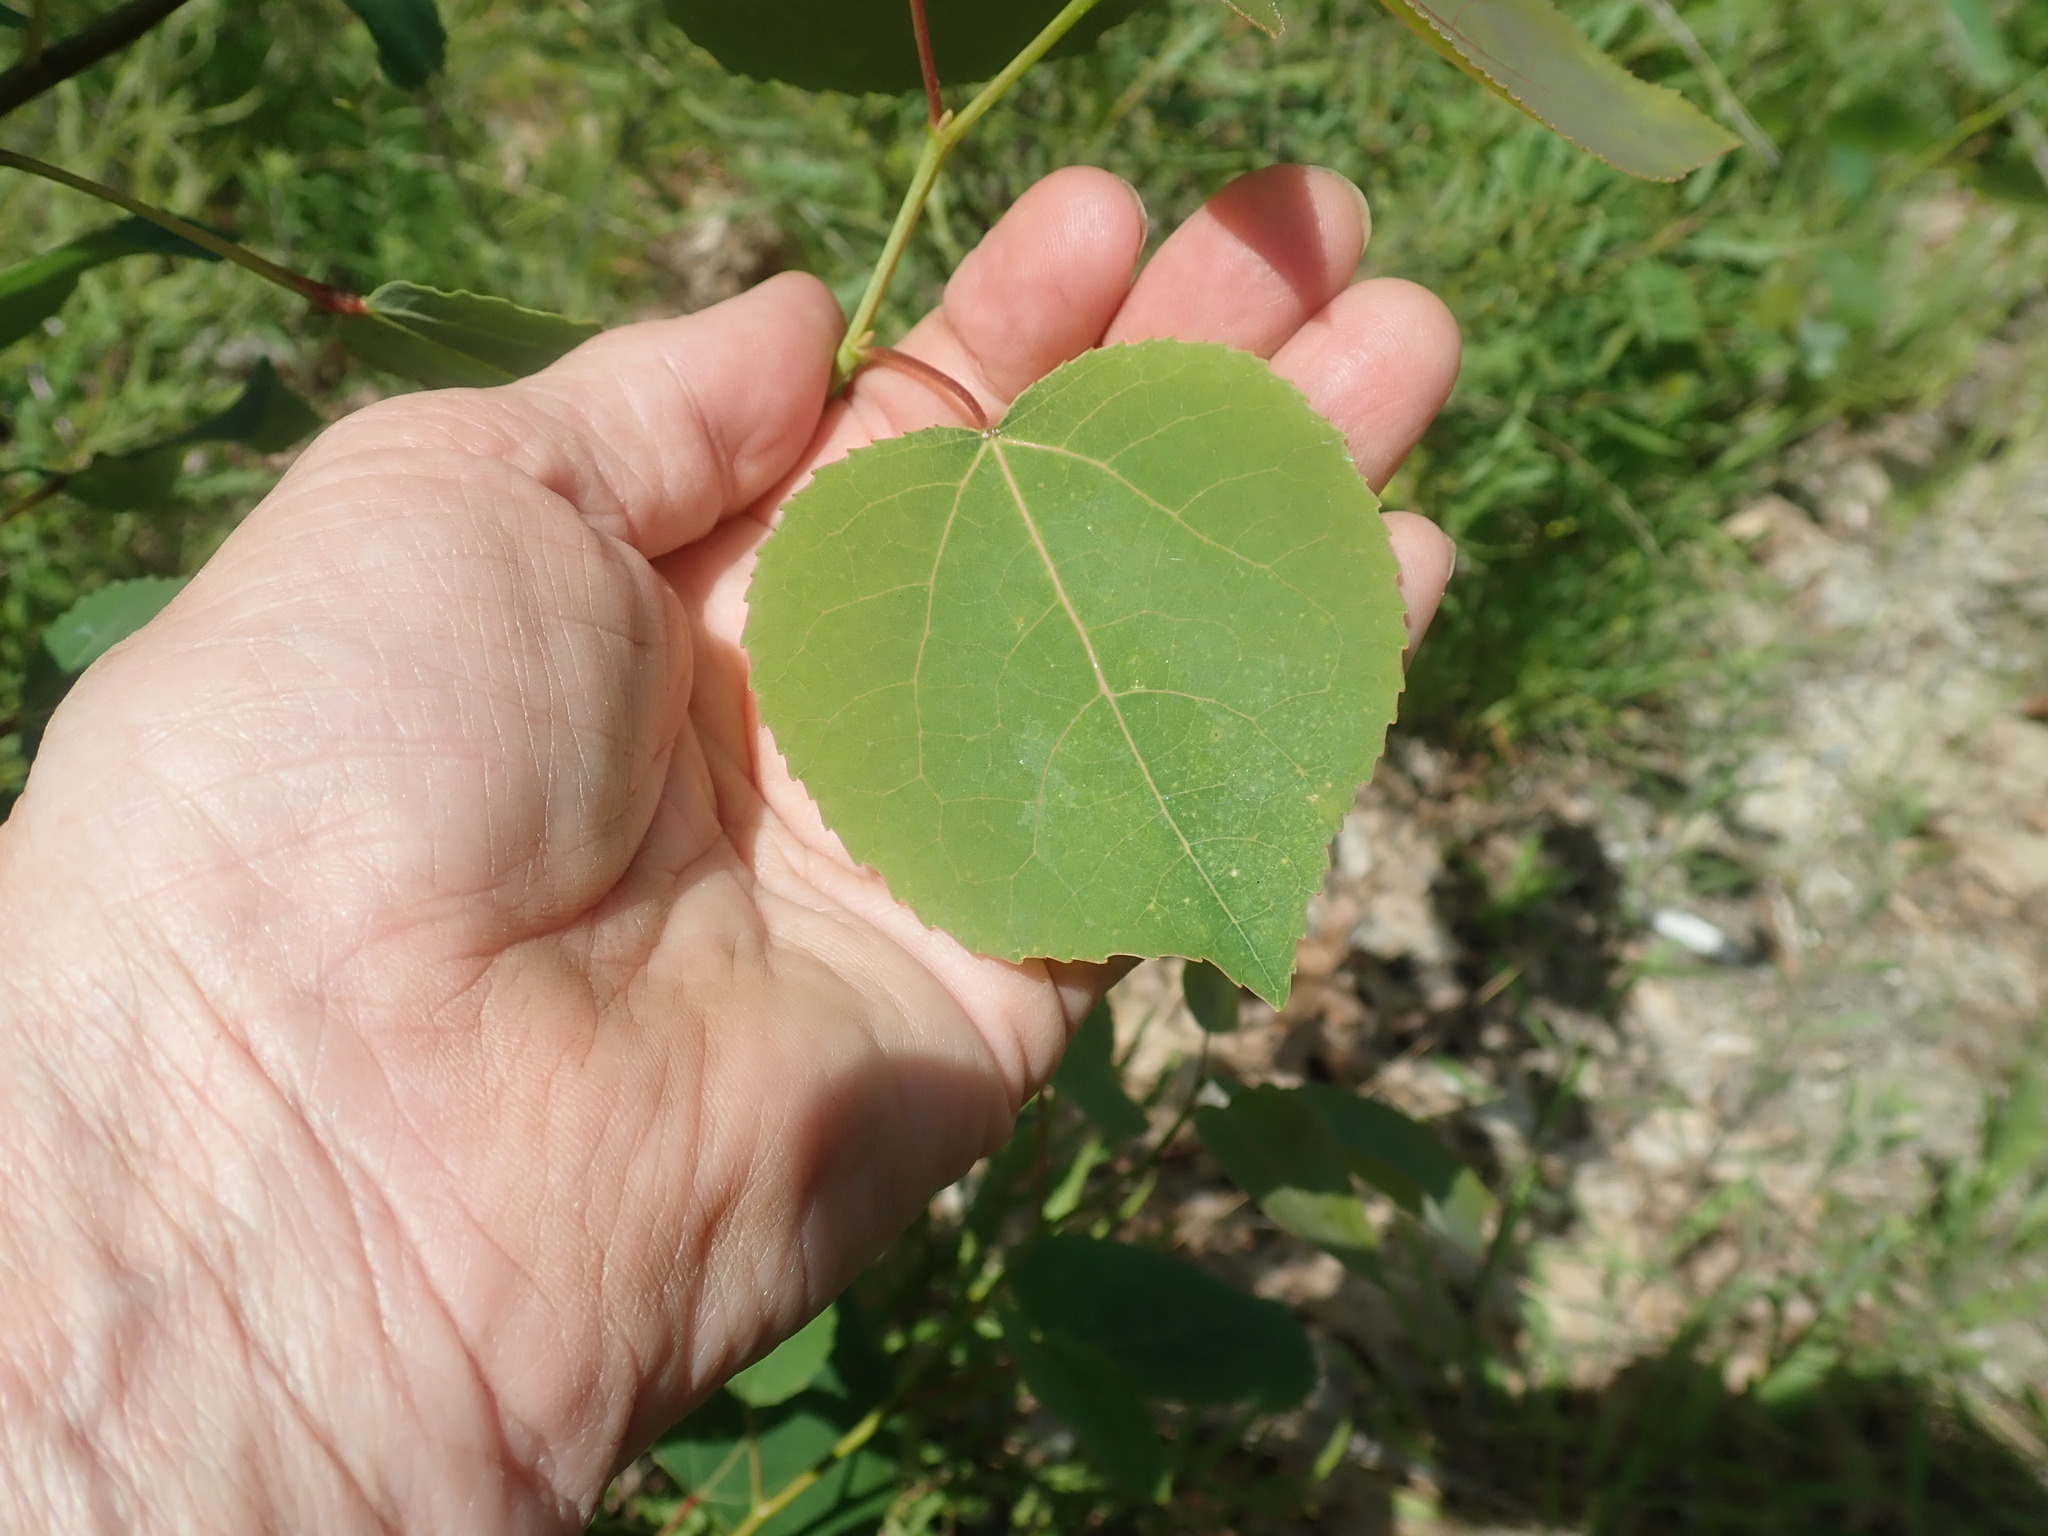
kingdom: Plantae
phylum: Tracheophyta
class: Magnoliopsida
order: Malpighiales
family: Salicaceae
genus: Populus
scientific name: Populus tremuloides
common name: Quaking aspen
